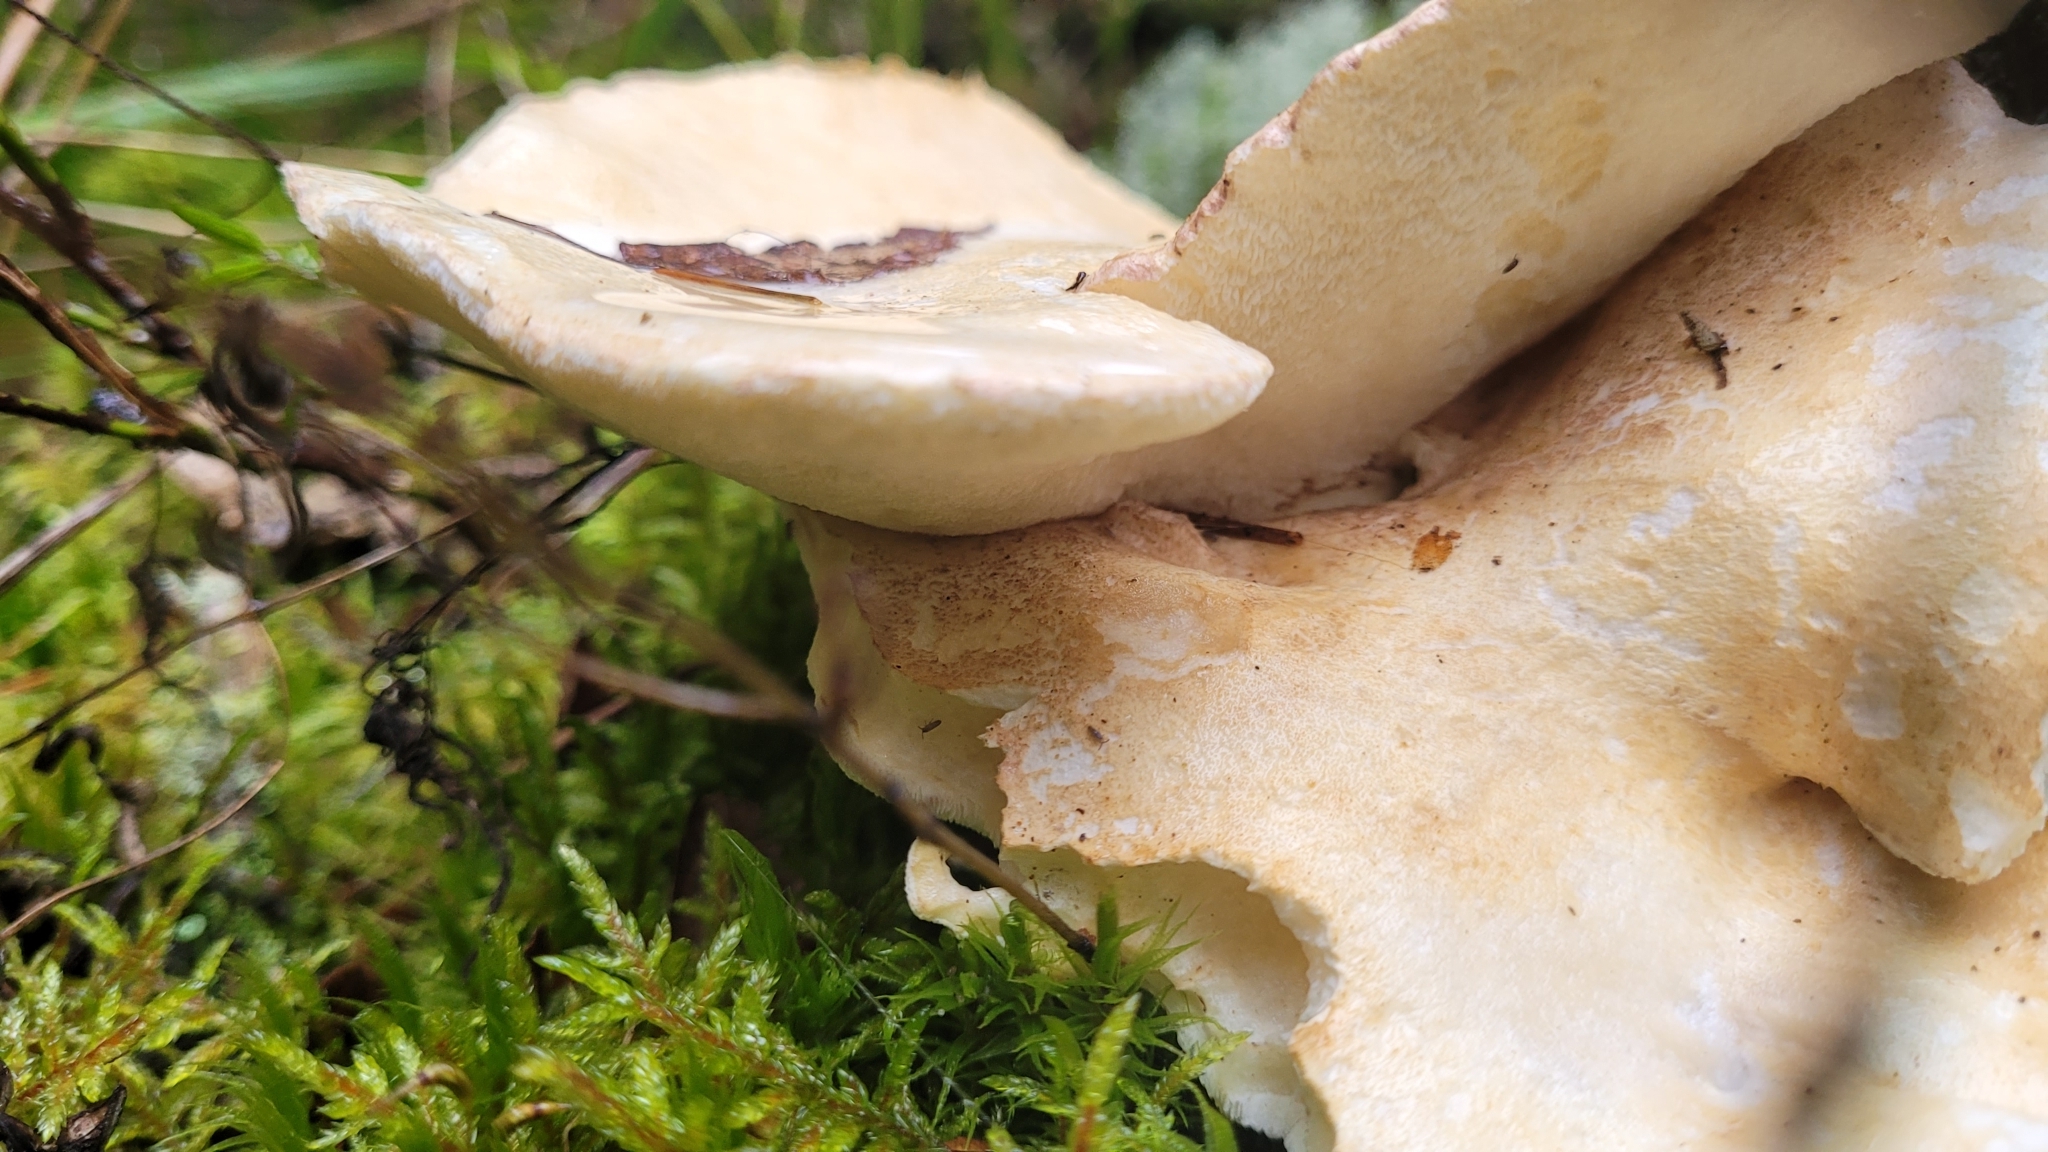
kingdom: Fungi
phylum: Basidiomycota
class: Agaricomycetes
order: Russulales
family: Albatrellaceae
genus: Albatrellus
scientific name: Albatrellus ovinus
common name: Forest lamb
